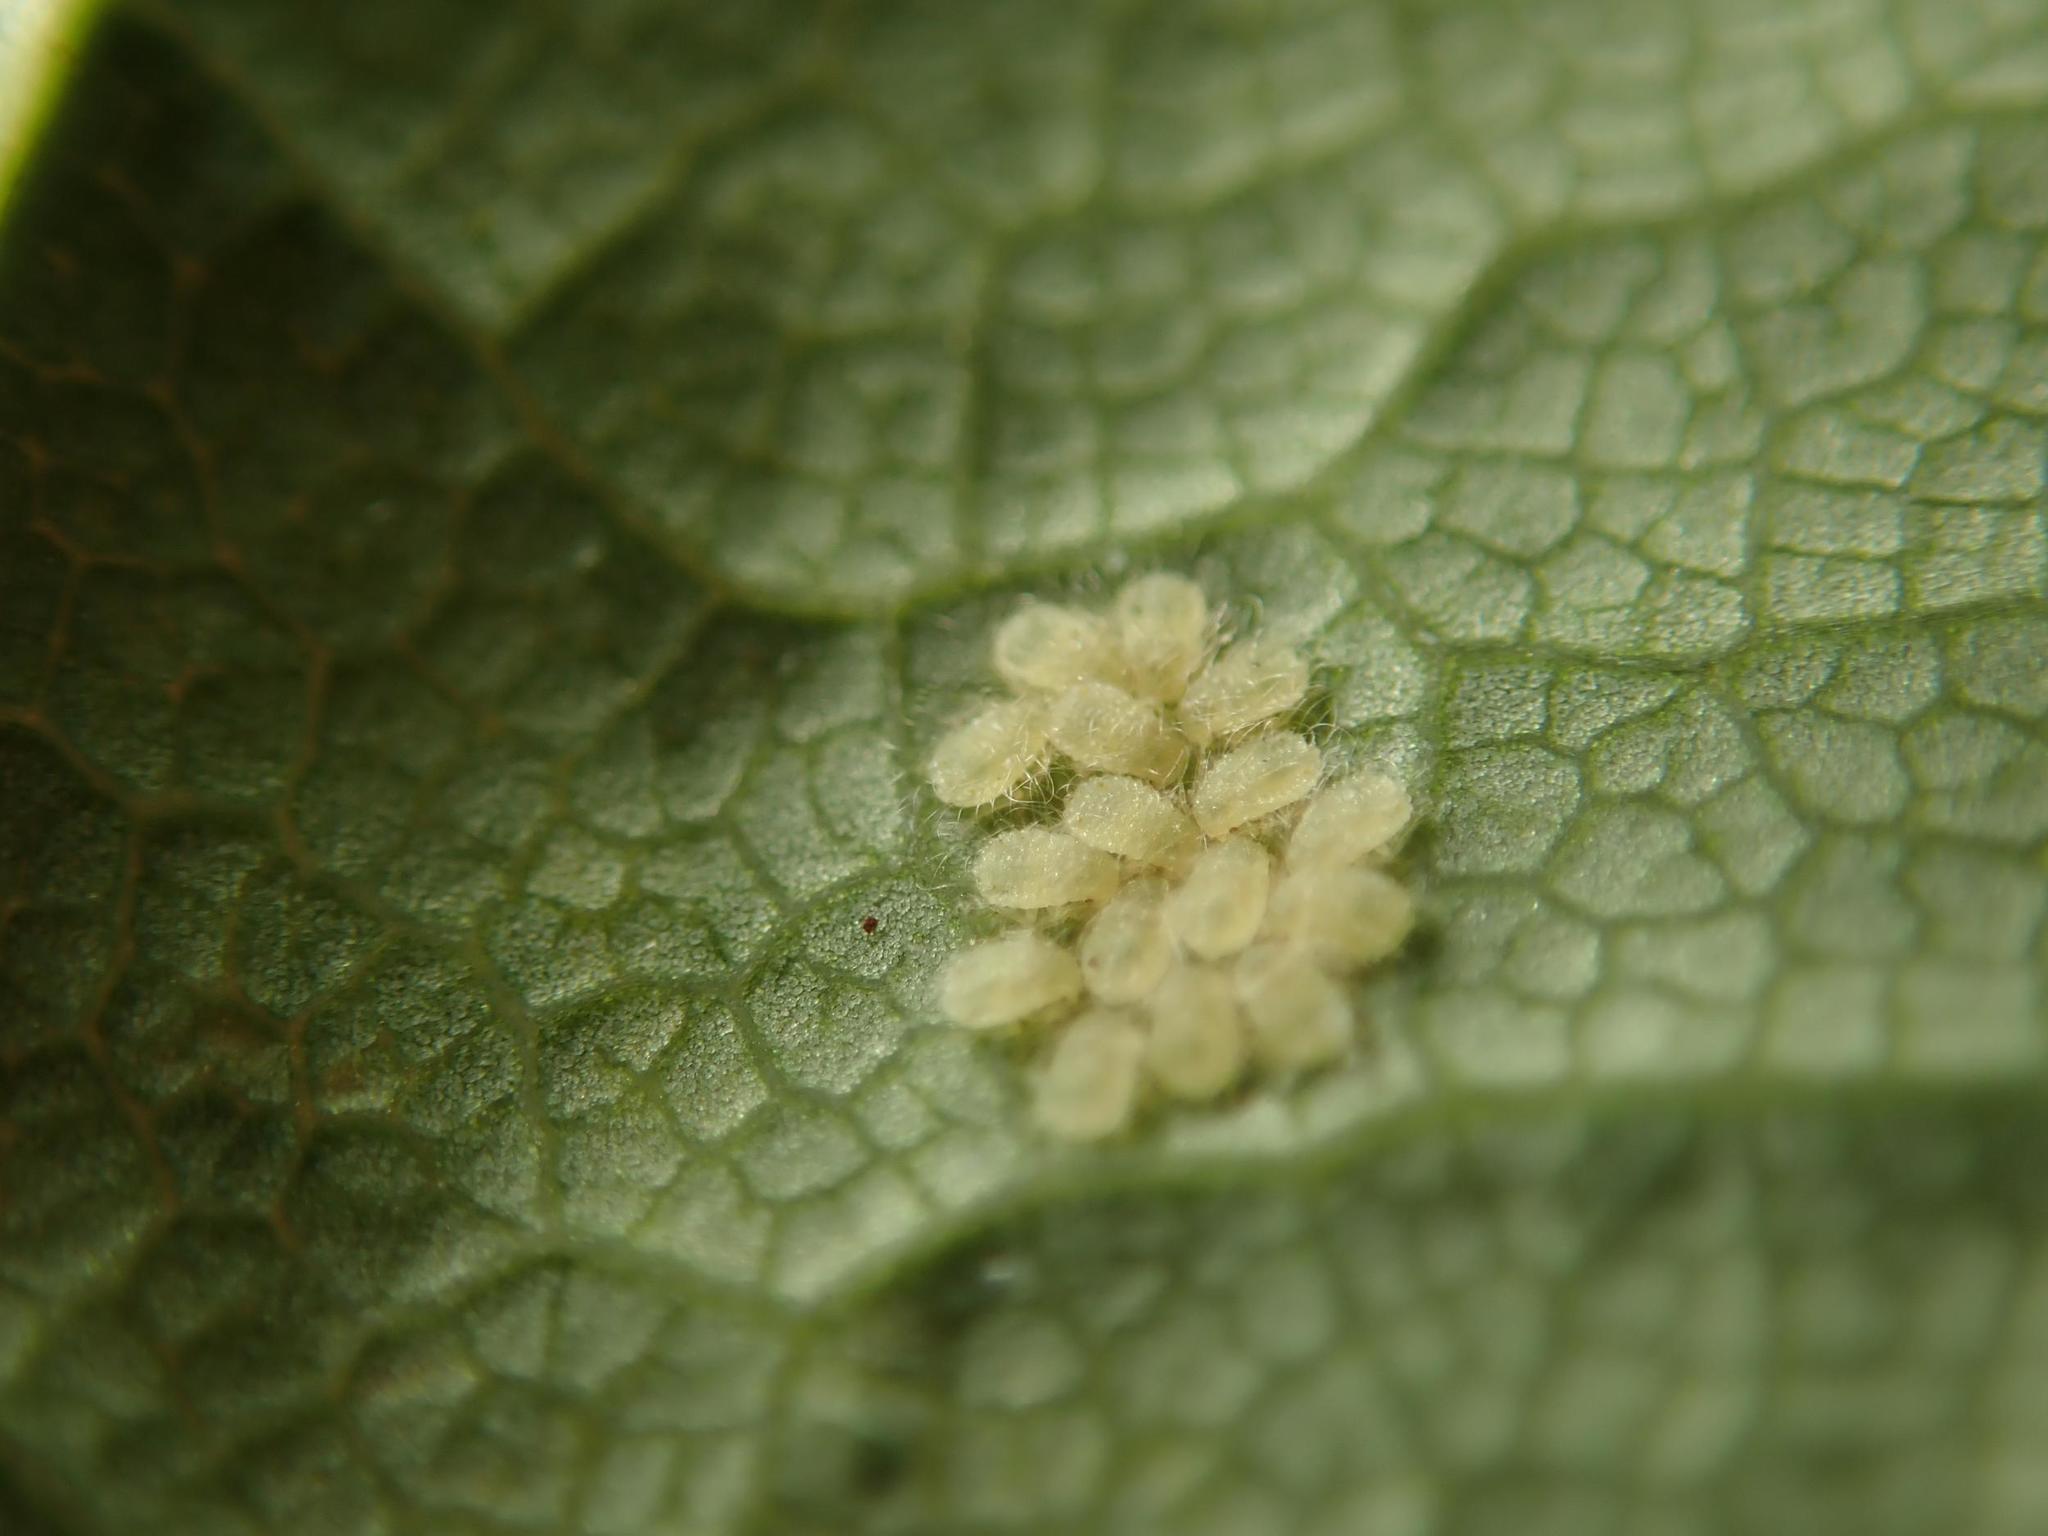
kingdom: Animalia
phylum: Arthropoda
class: Insecta
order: Hemiptera
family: Aphididae
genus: Periphyllus
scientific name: Periphyllus
